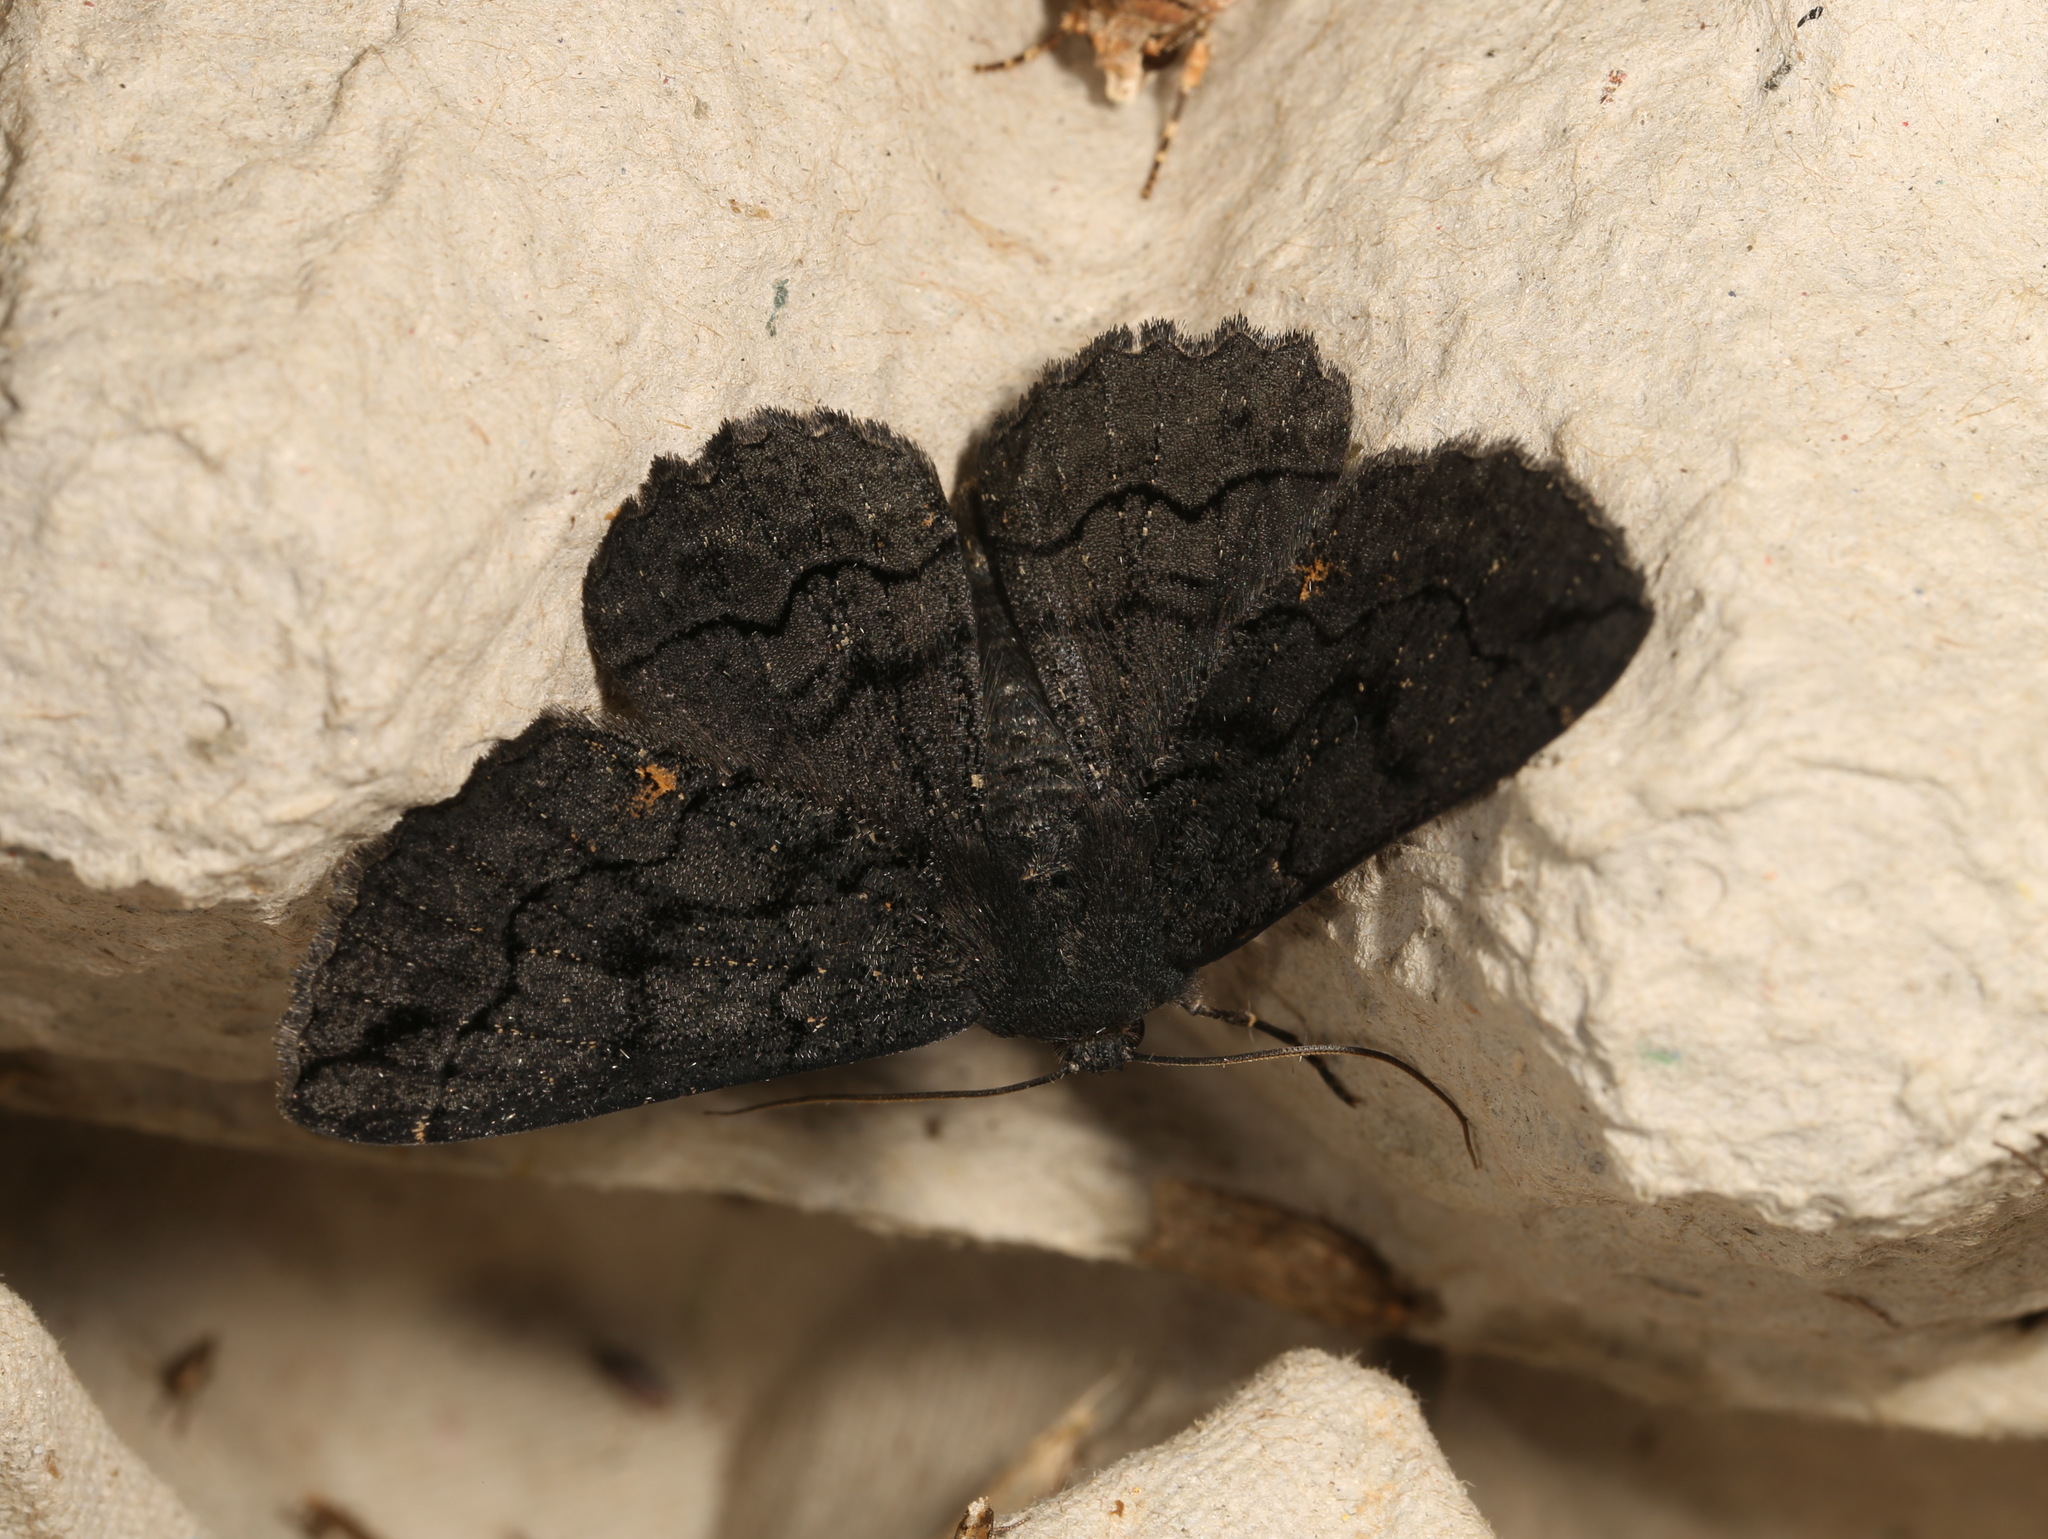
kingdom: Animalia
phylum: Arthropoda
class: Insecta
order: Lepidoptera
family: Geometridae
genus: Melanodes
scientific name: Melanodes anthracitaria
